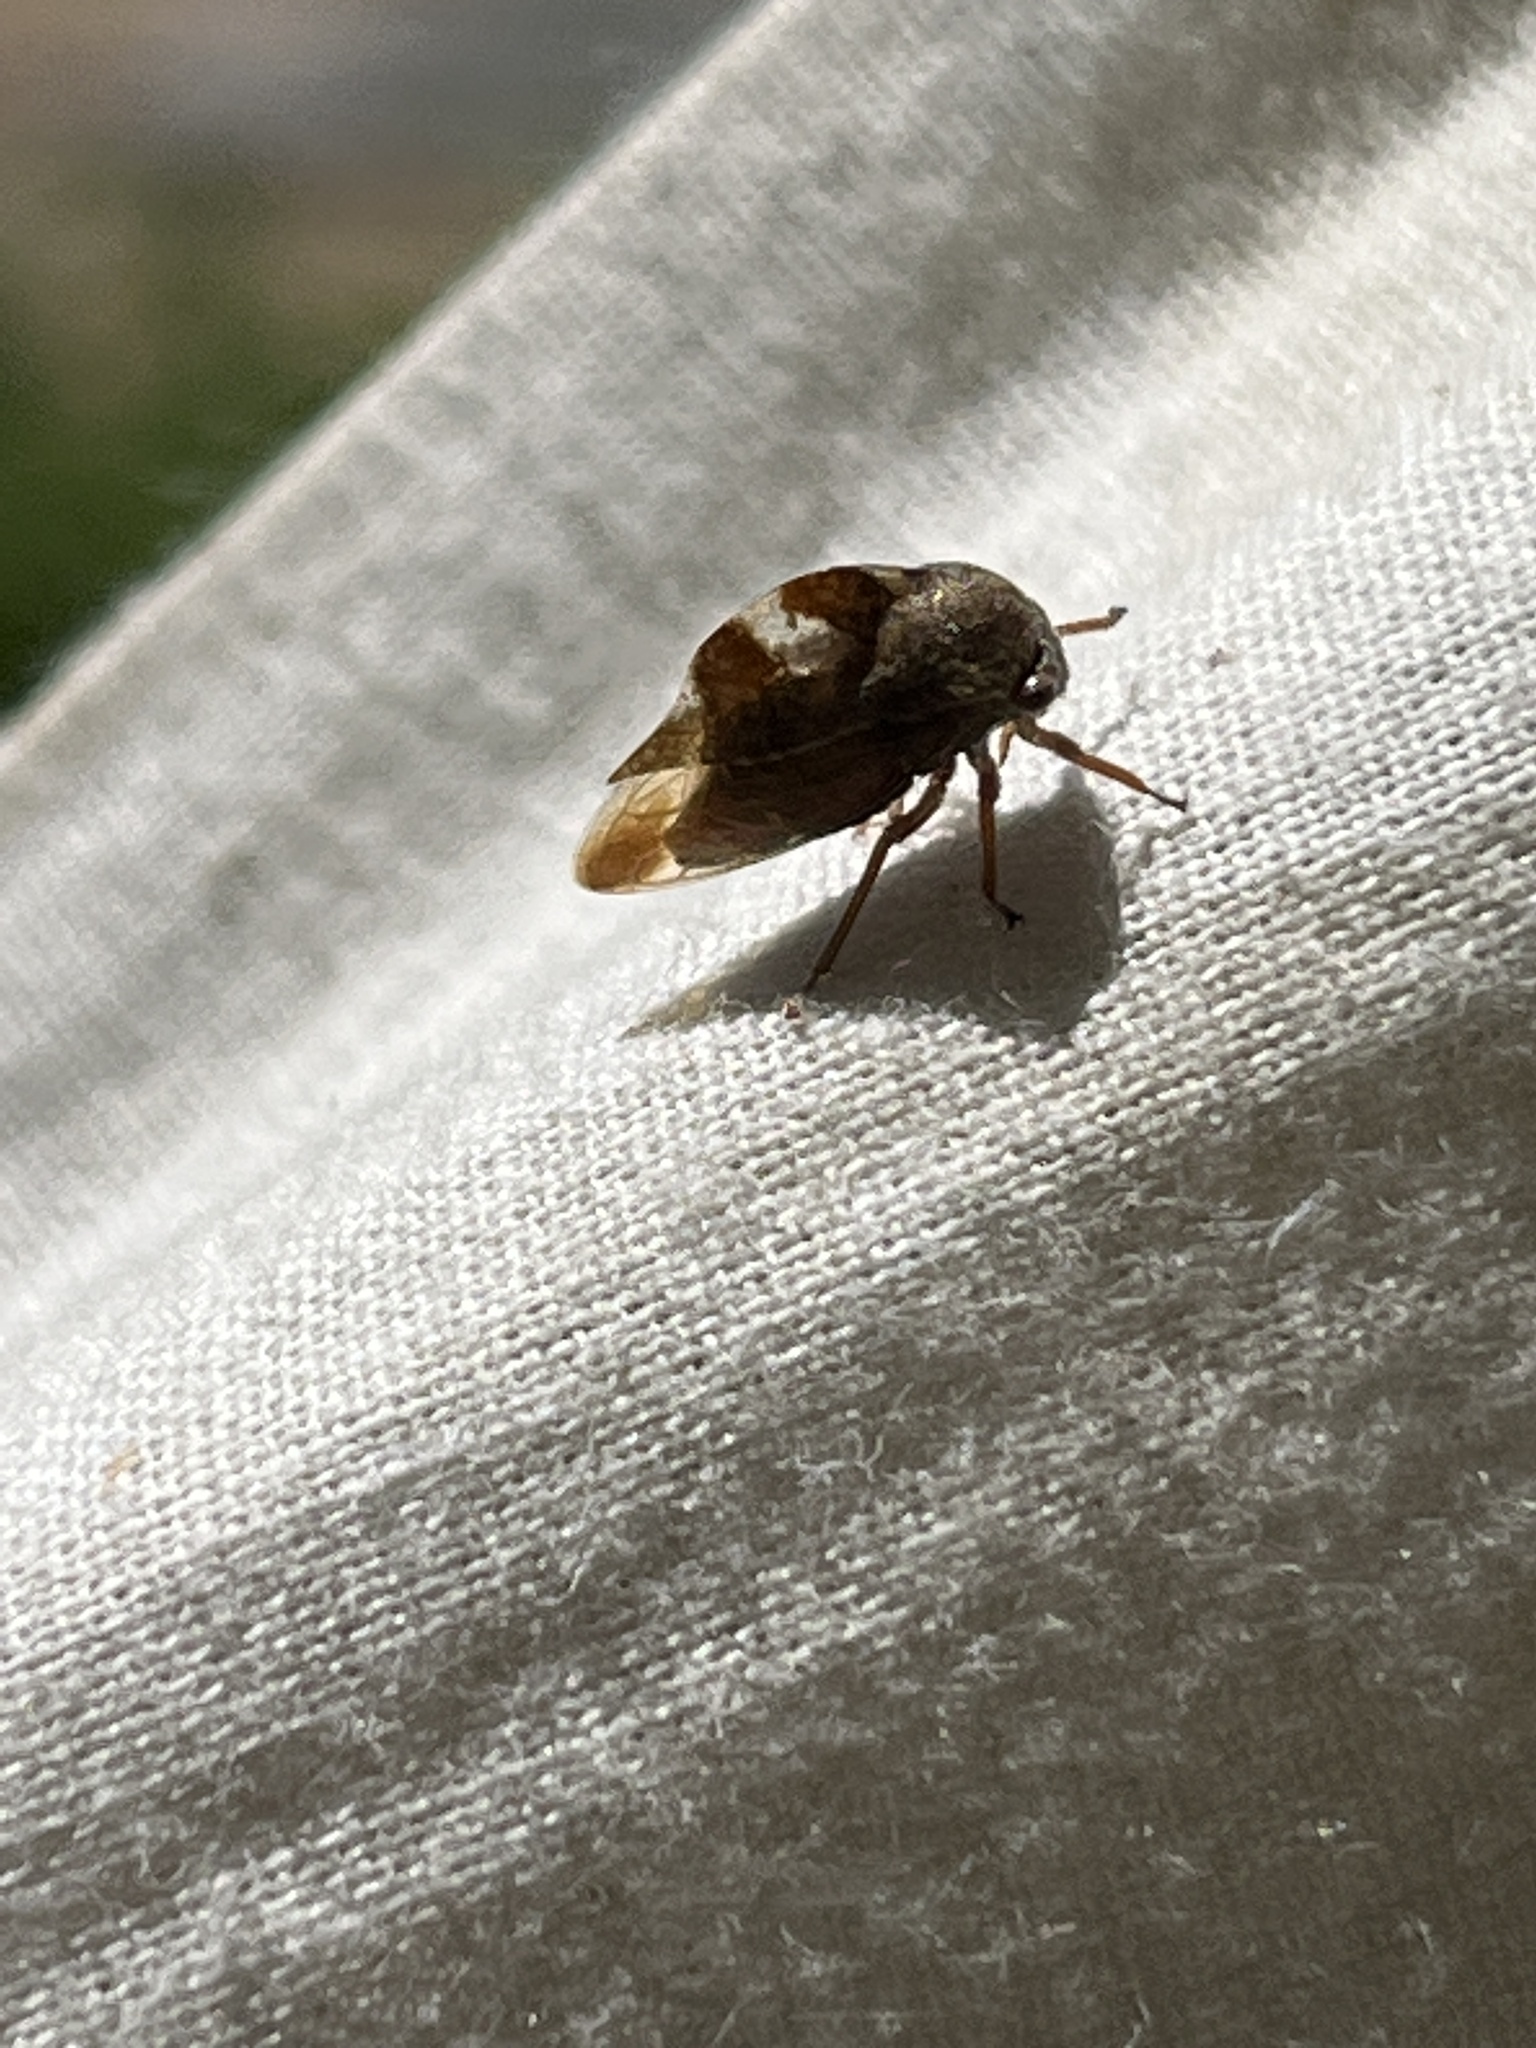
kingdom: Animalia
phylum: Arthropoda
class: Insecta
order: Hemiptera
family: Membracidae
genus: Cyrtolobus
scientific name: Cyrtolobus tuberosa
